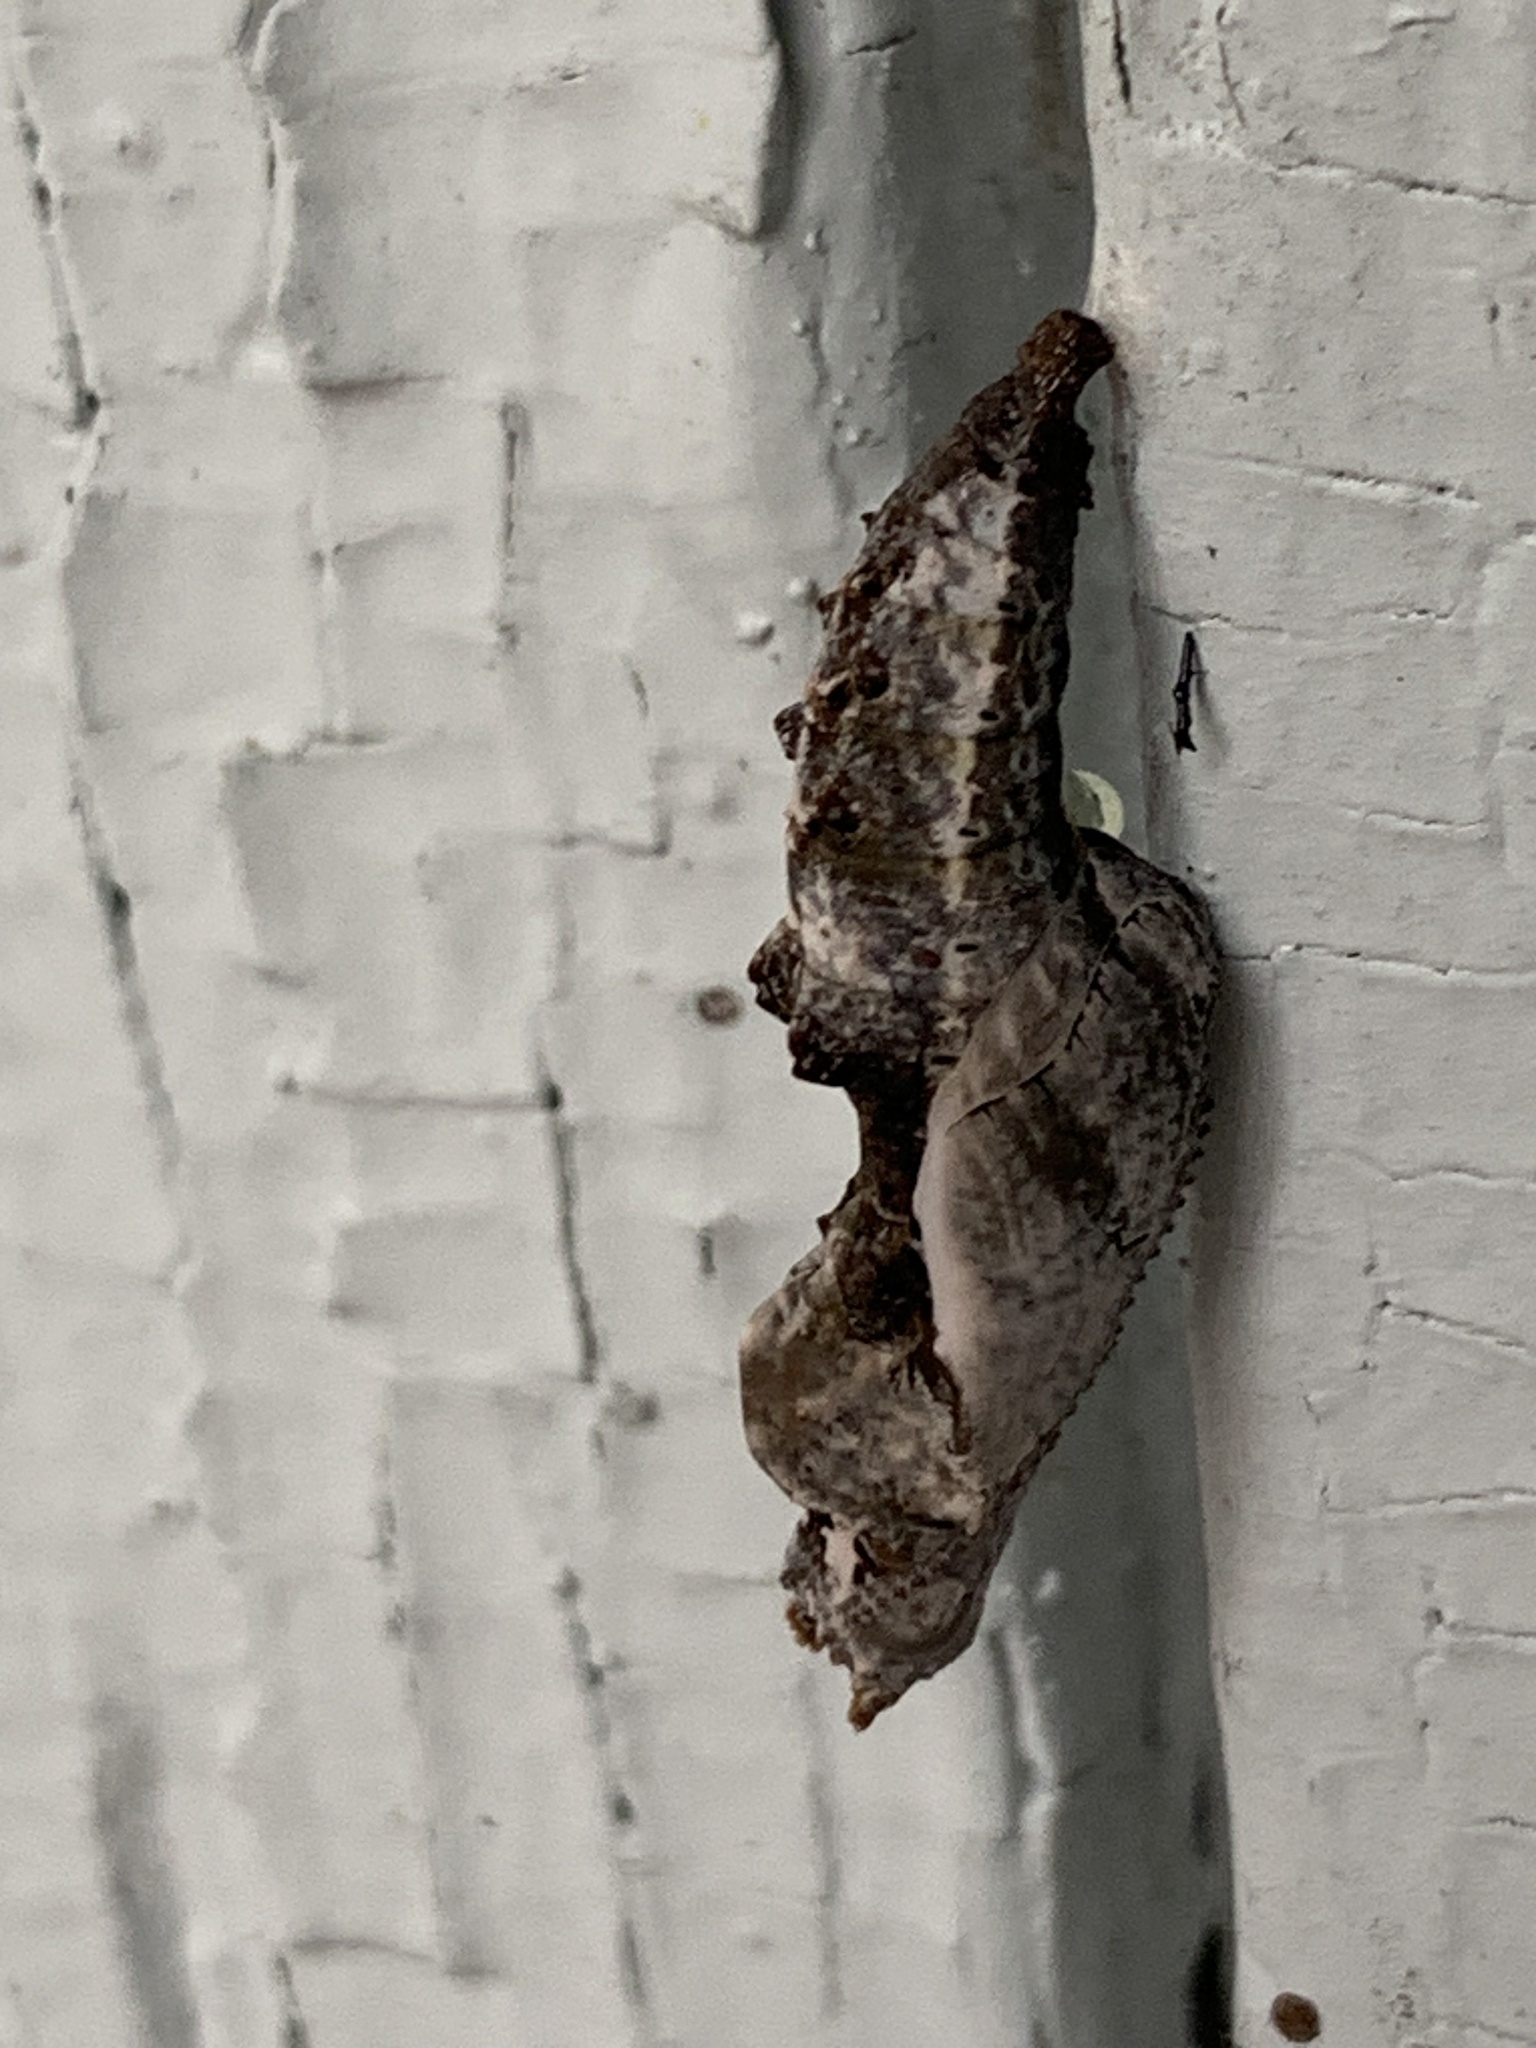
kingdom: Animalia
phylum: Arthropoda
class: Insecta
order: Lepidoptera
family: Nymphalidae
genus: Dione
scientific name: Dione vanillae
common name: Gulf fritillary
